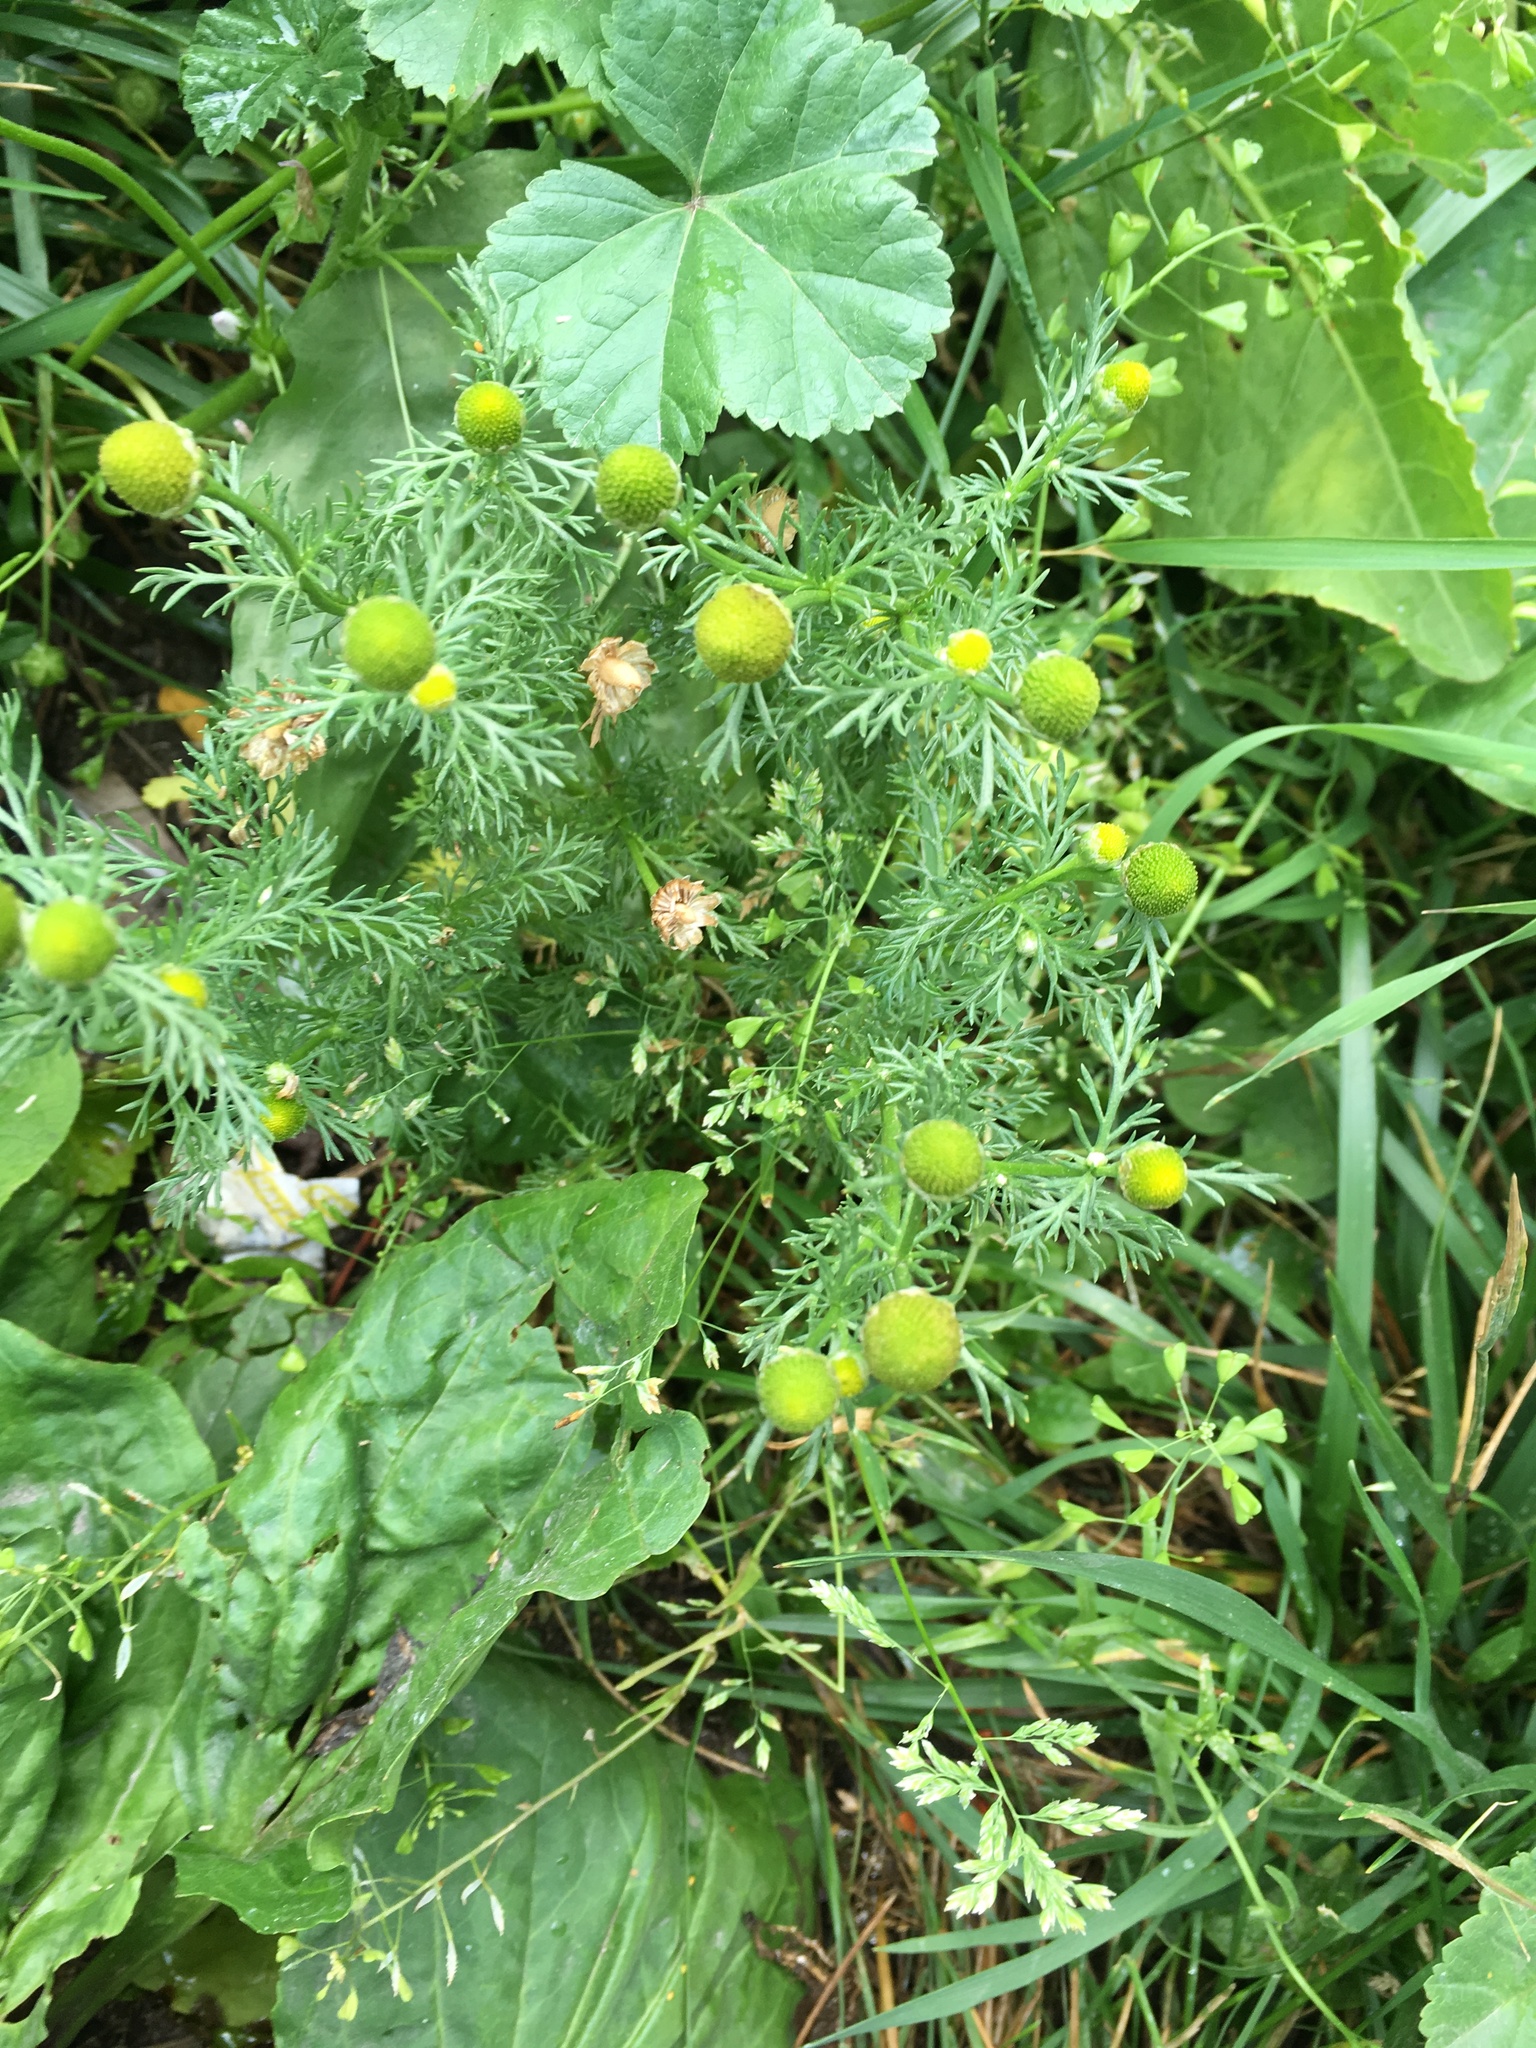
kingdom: Plantae
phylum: Tracheophyta
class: Magnoliopsida
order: Asterales
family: Asteraceae
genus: Matricaria
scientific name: Matricaria discoidea
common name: Disc mayweed
